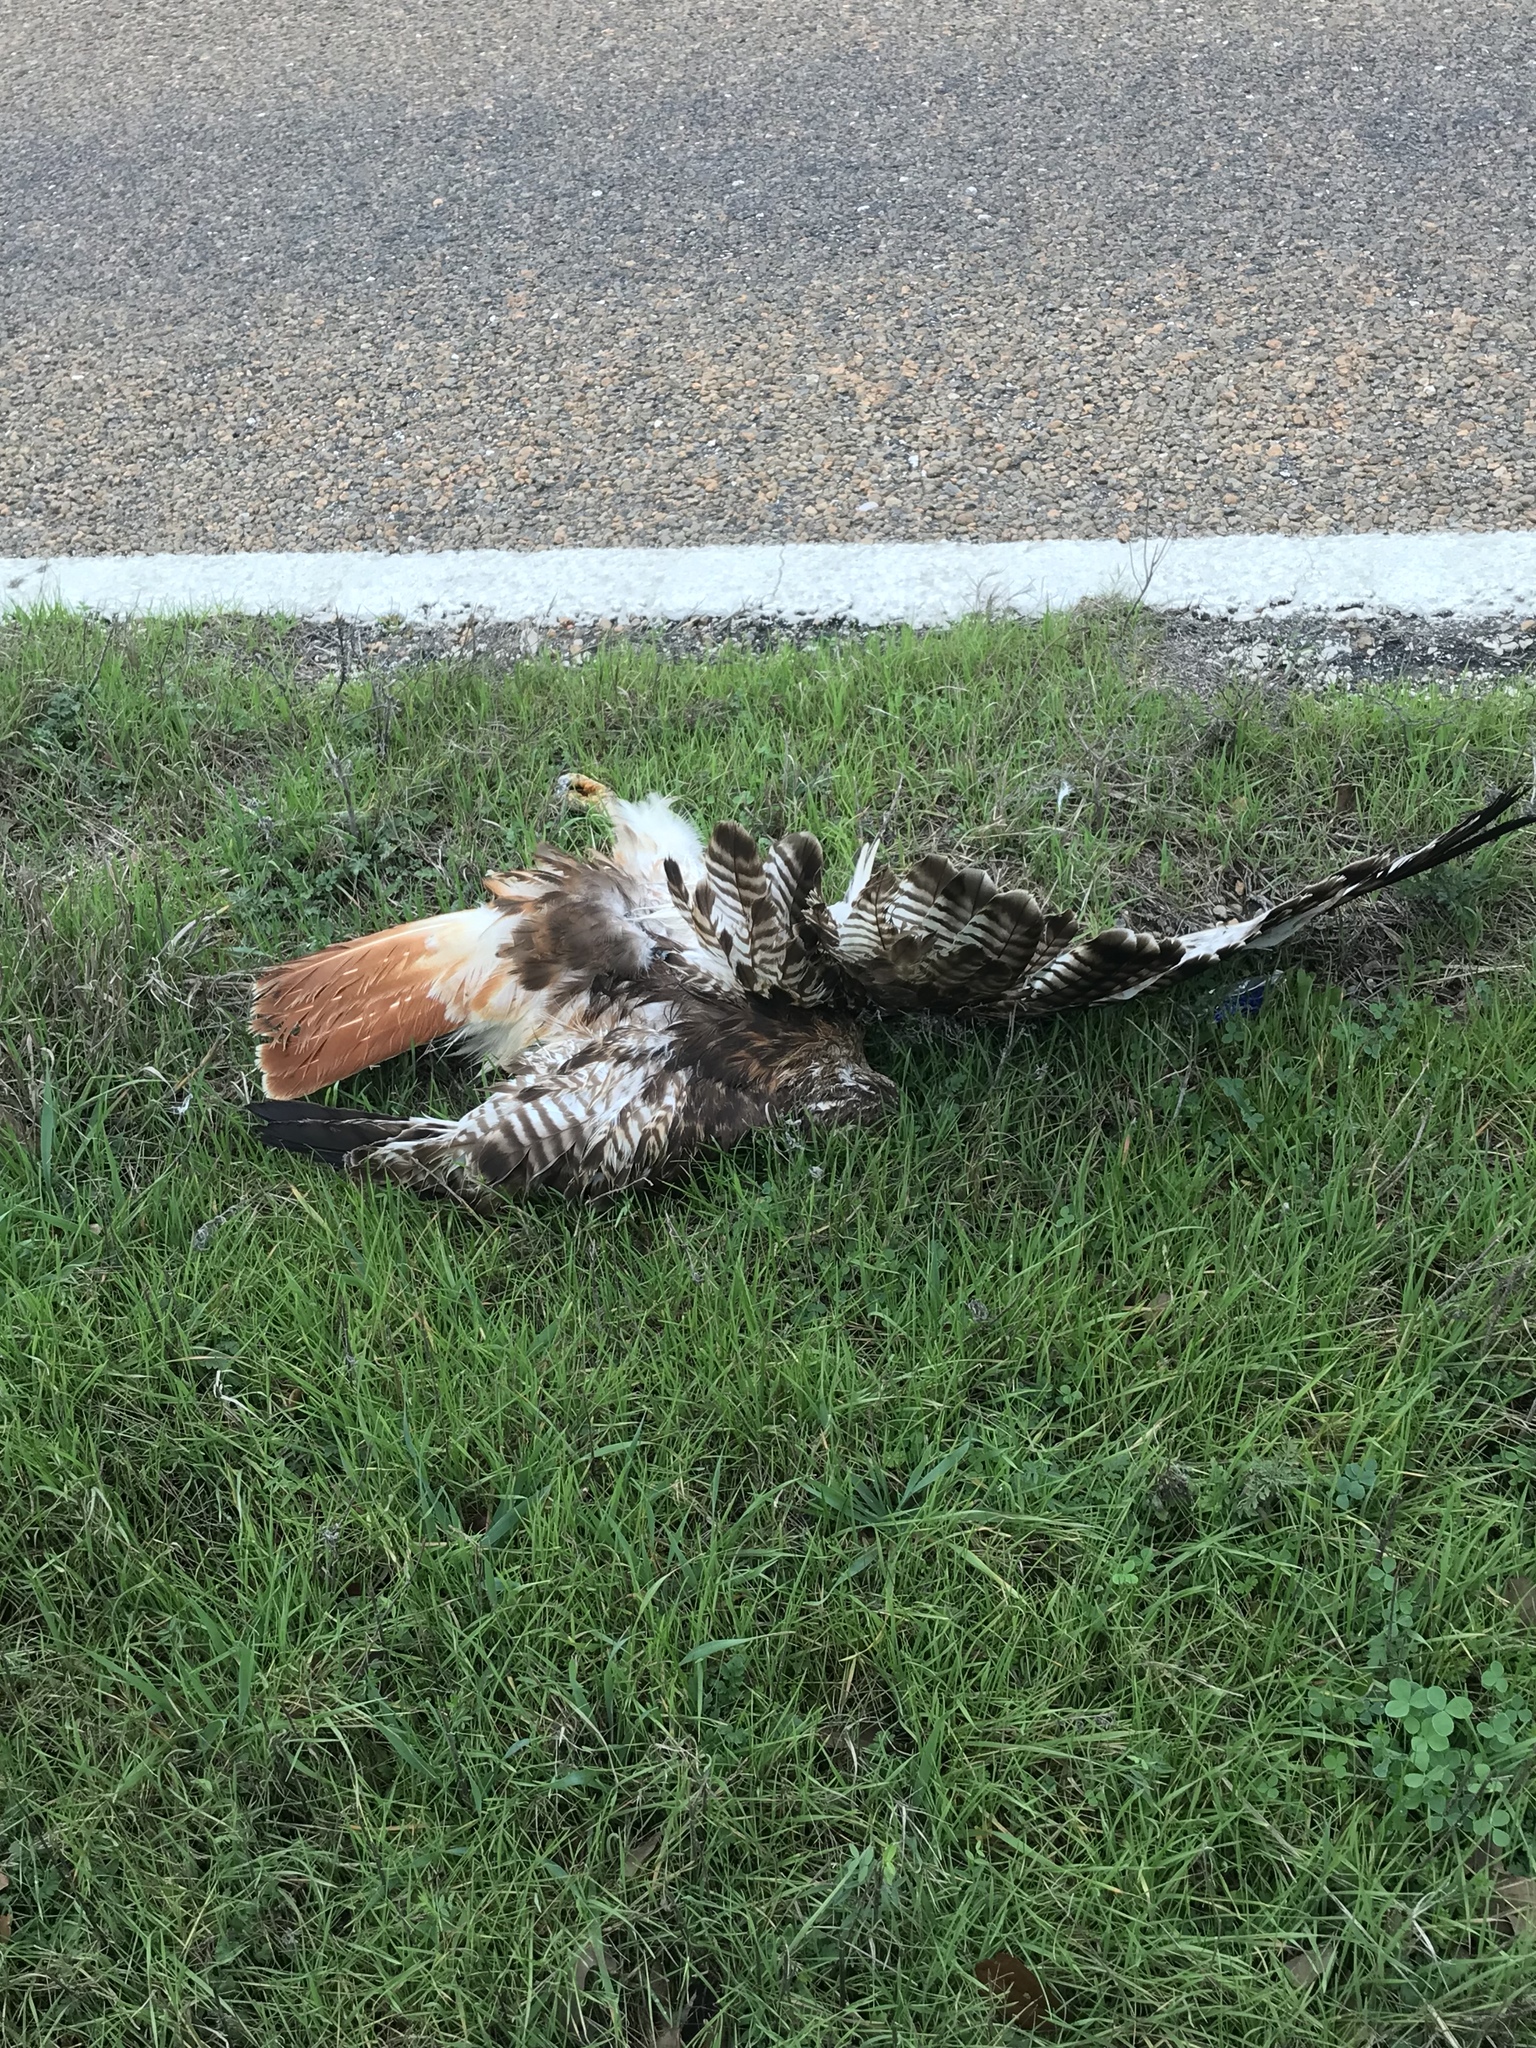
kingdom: Animalia
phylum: Chordata
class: Aves
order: Accipitriformes
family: Accipitridae
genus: Buteo
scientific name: Buteo jamaicensis
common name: Red-tailed hawk
